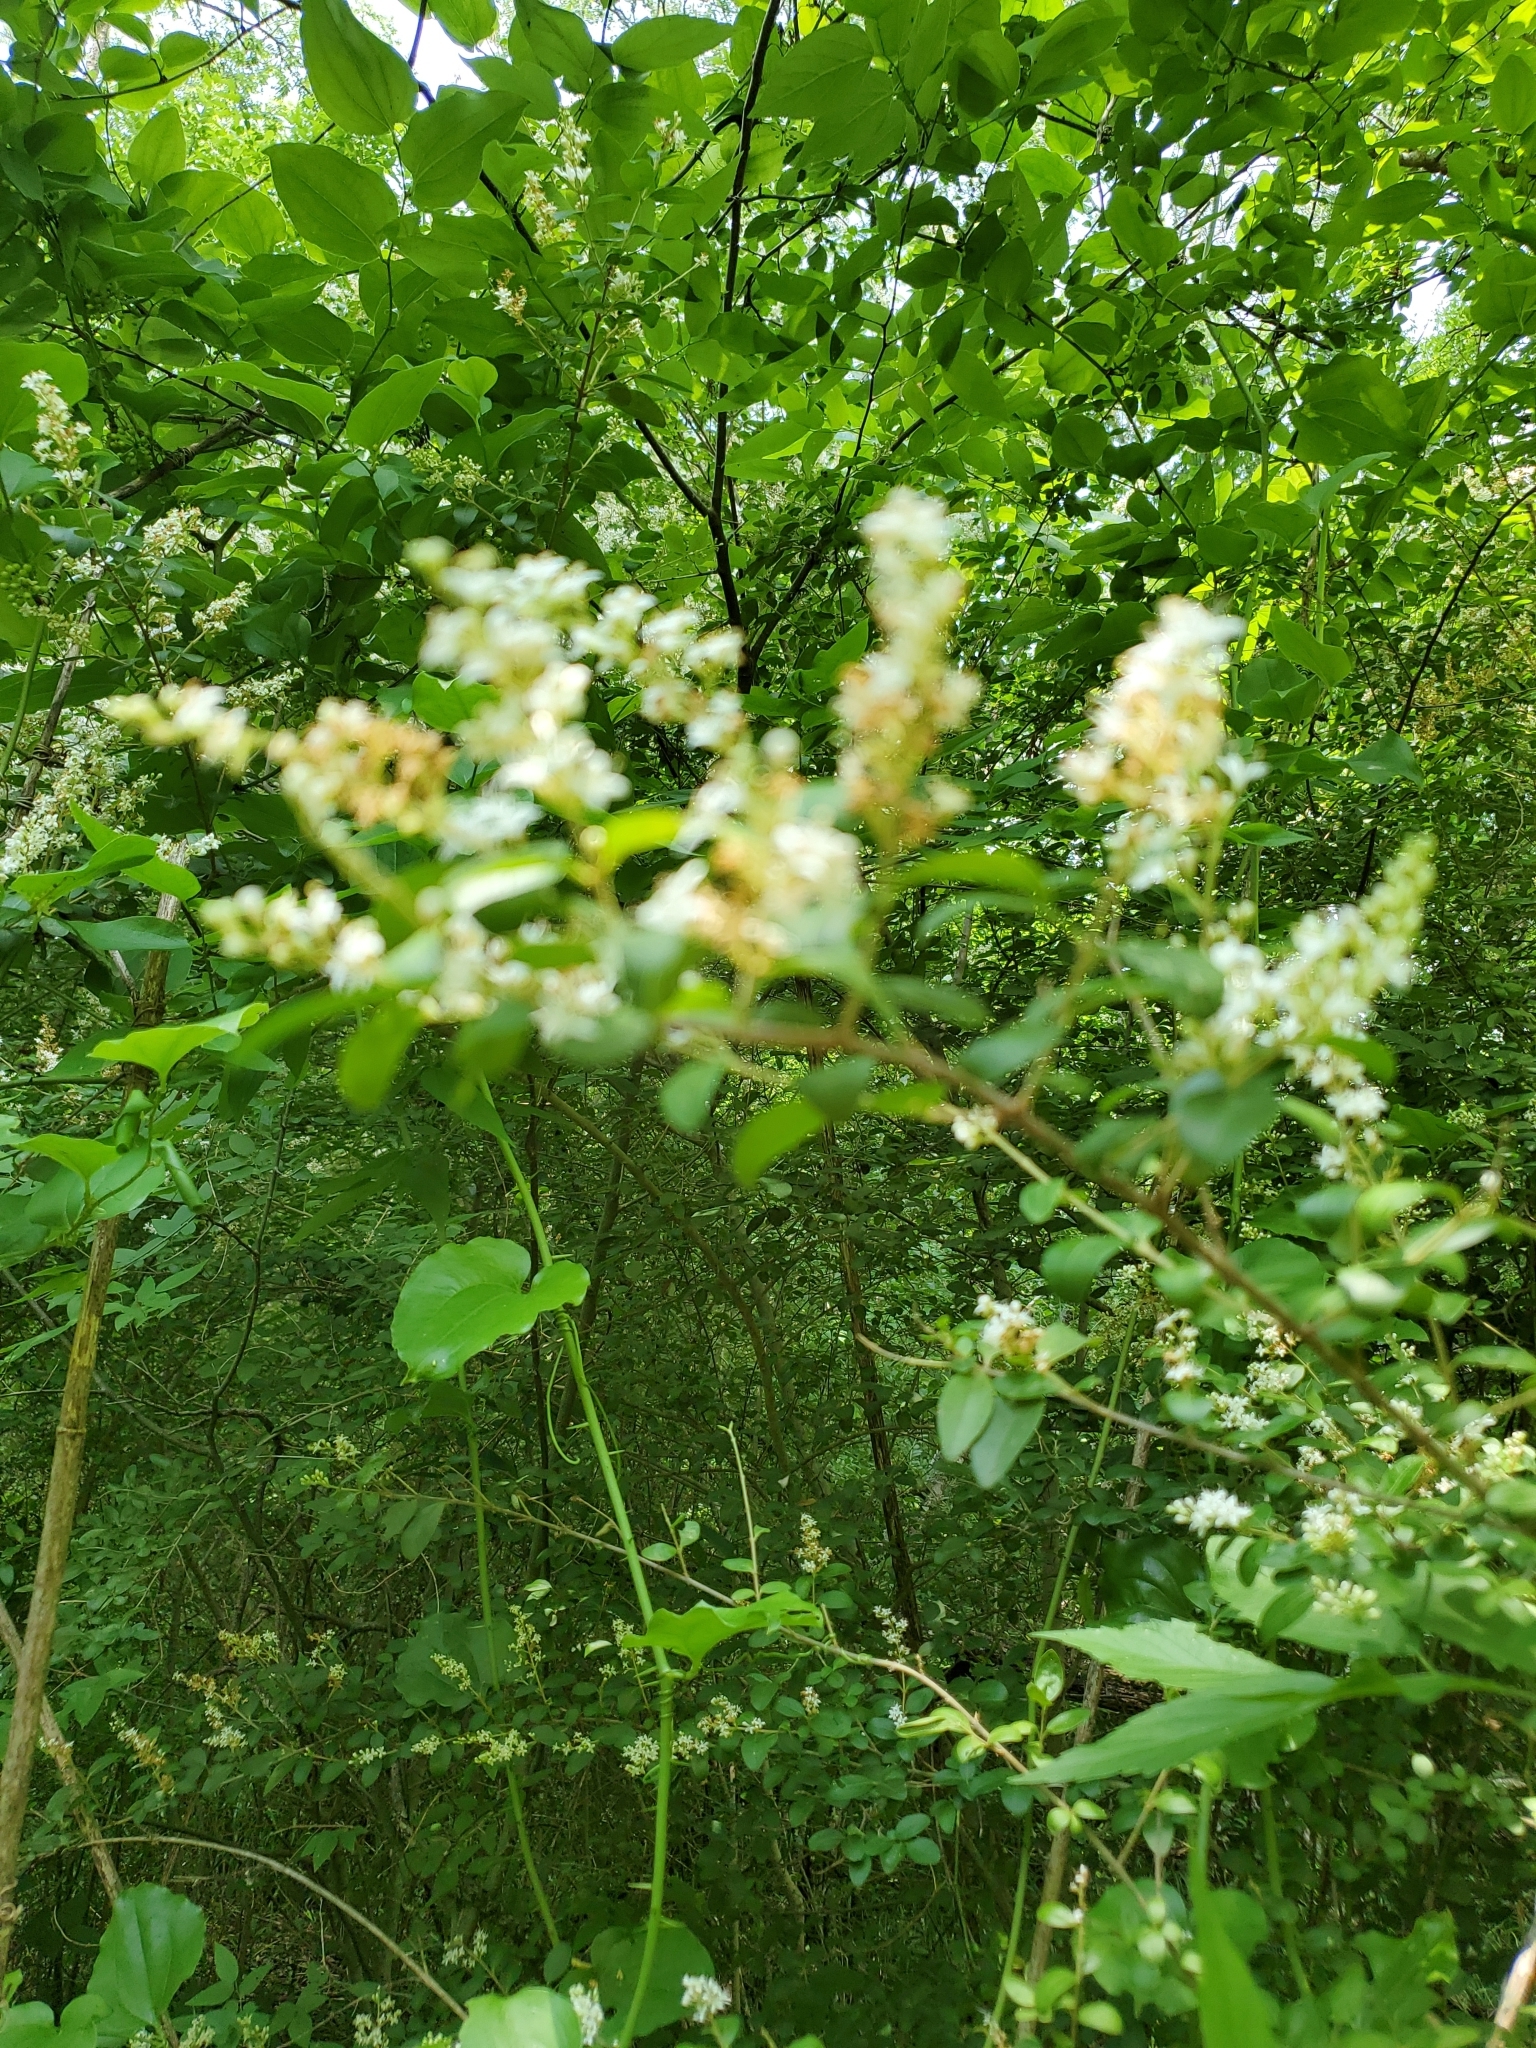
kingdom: Plantae
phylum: Tracheophyta
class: Magnoliopsida
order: Lamiales
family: Oleaceae
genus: Ligustrum
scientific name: Ligustrum sinense
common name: Chinese privet
